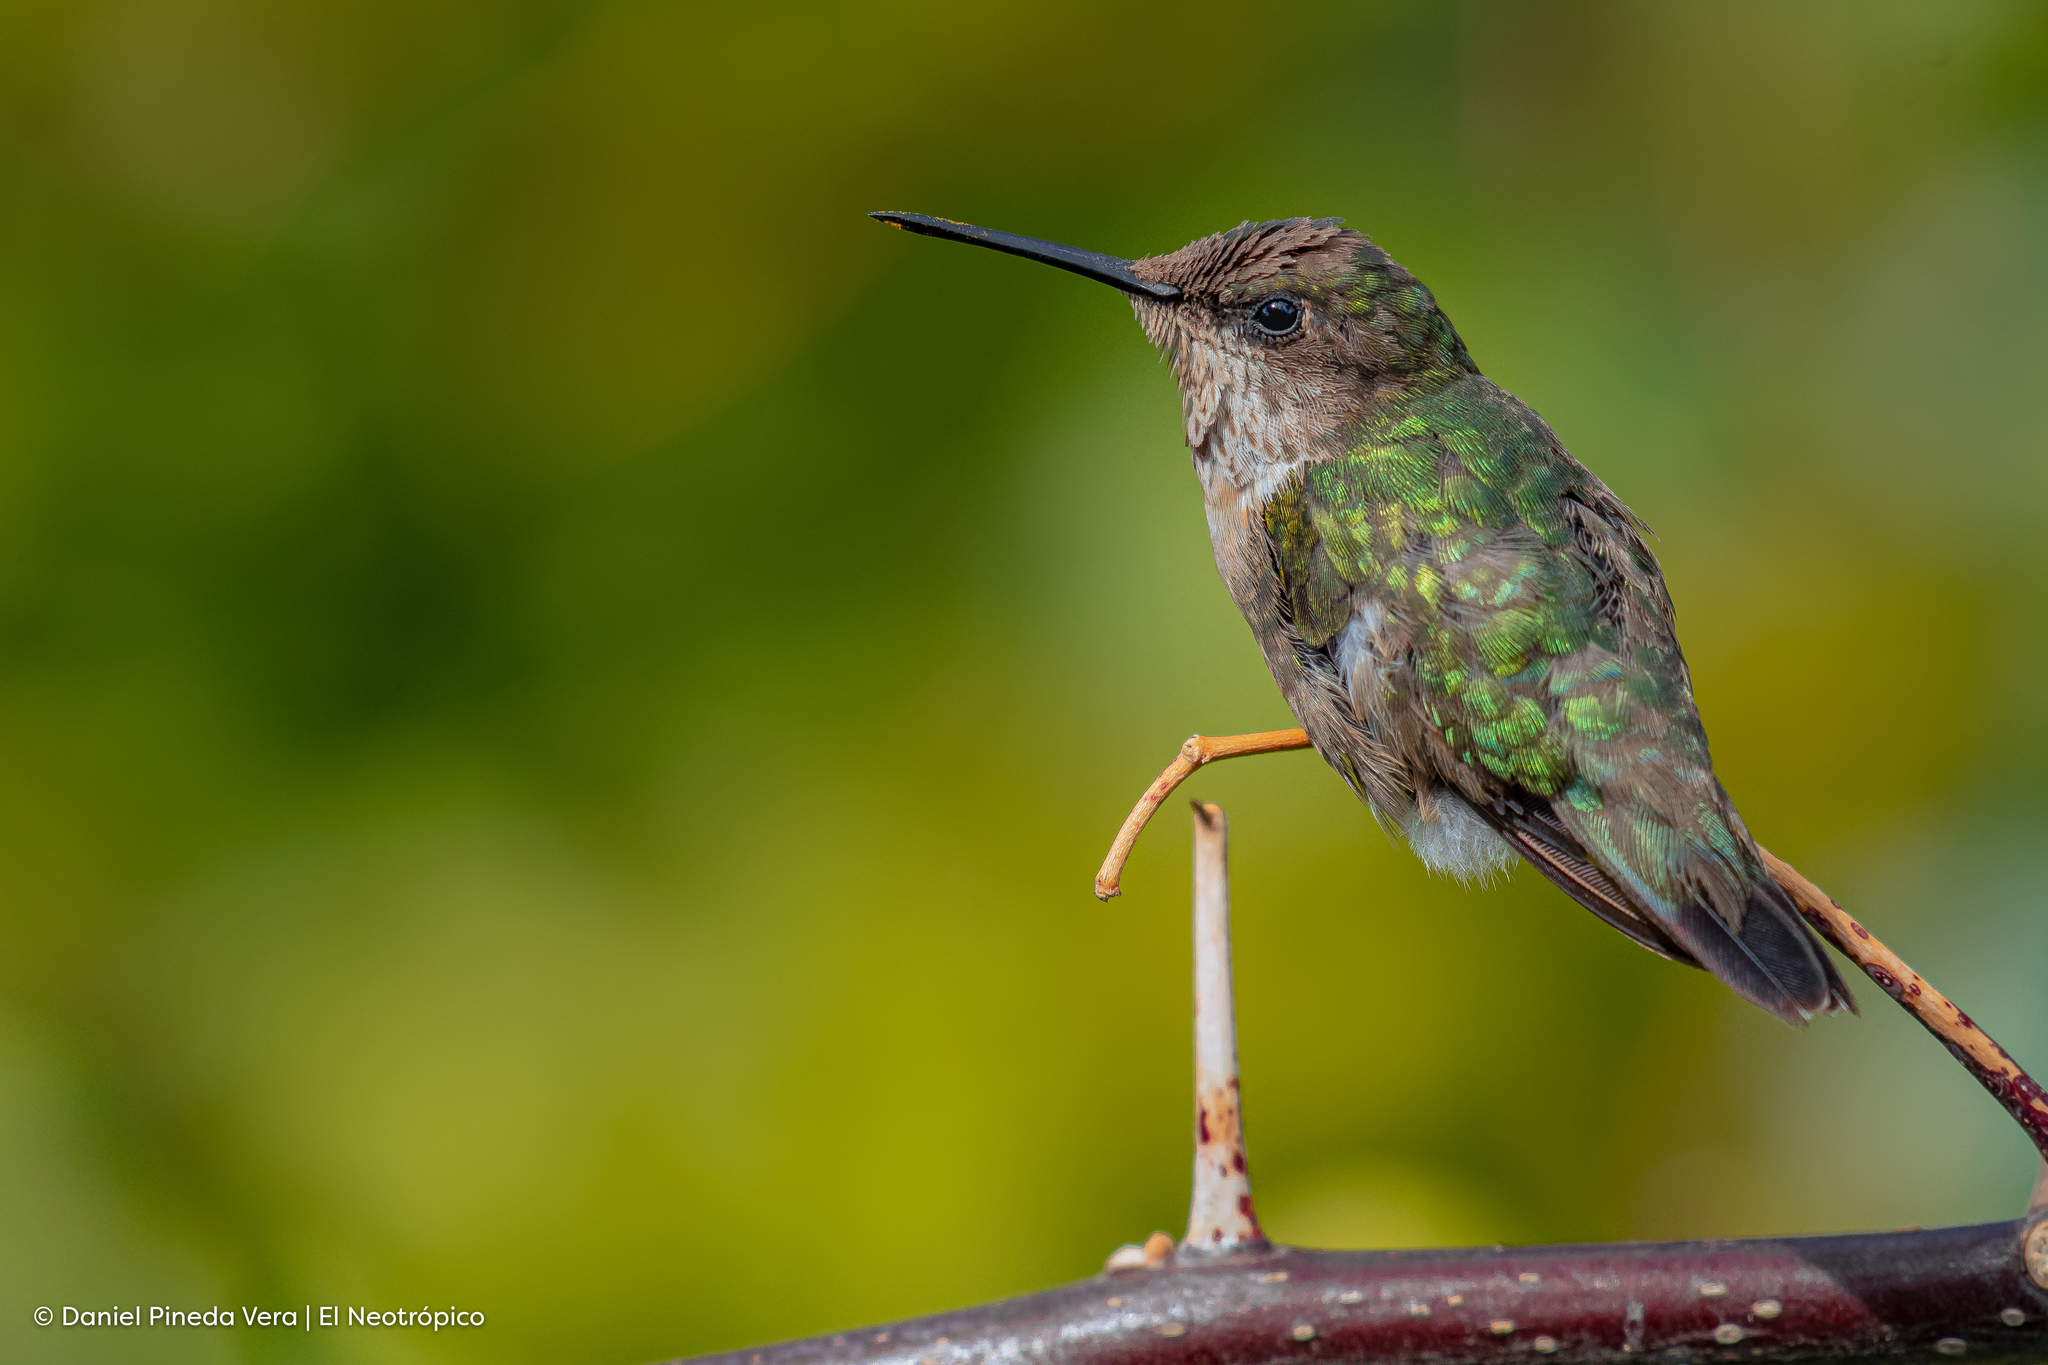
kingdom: Animalia
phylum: Chordata
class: Aves
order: Apodiformes
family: Trochilidae
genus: Archilochus
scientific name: Archilochus colubris
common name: Ruby-throated hummingbird
